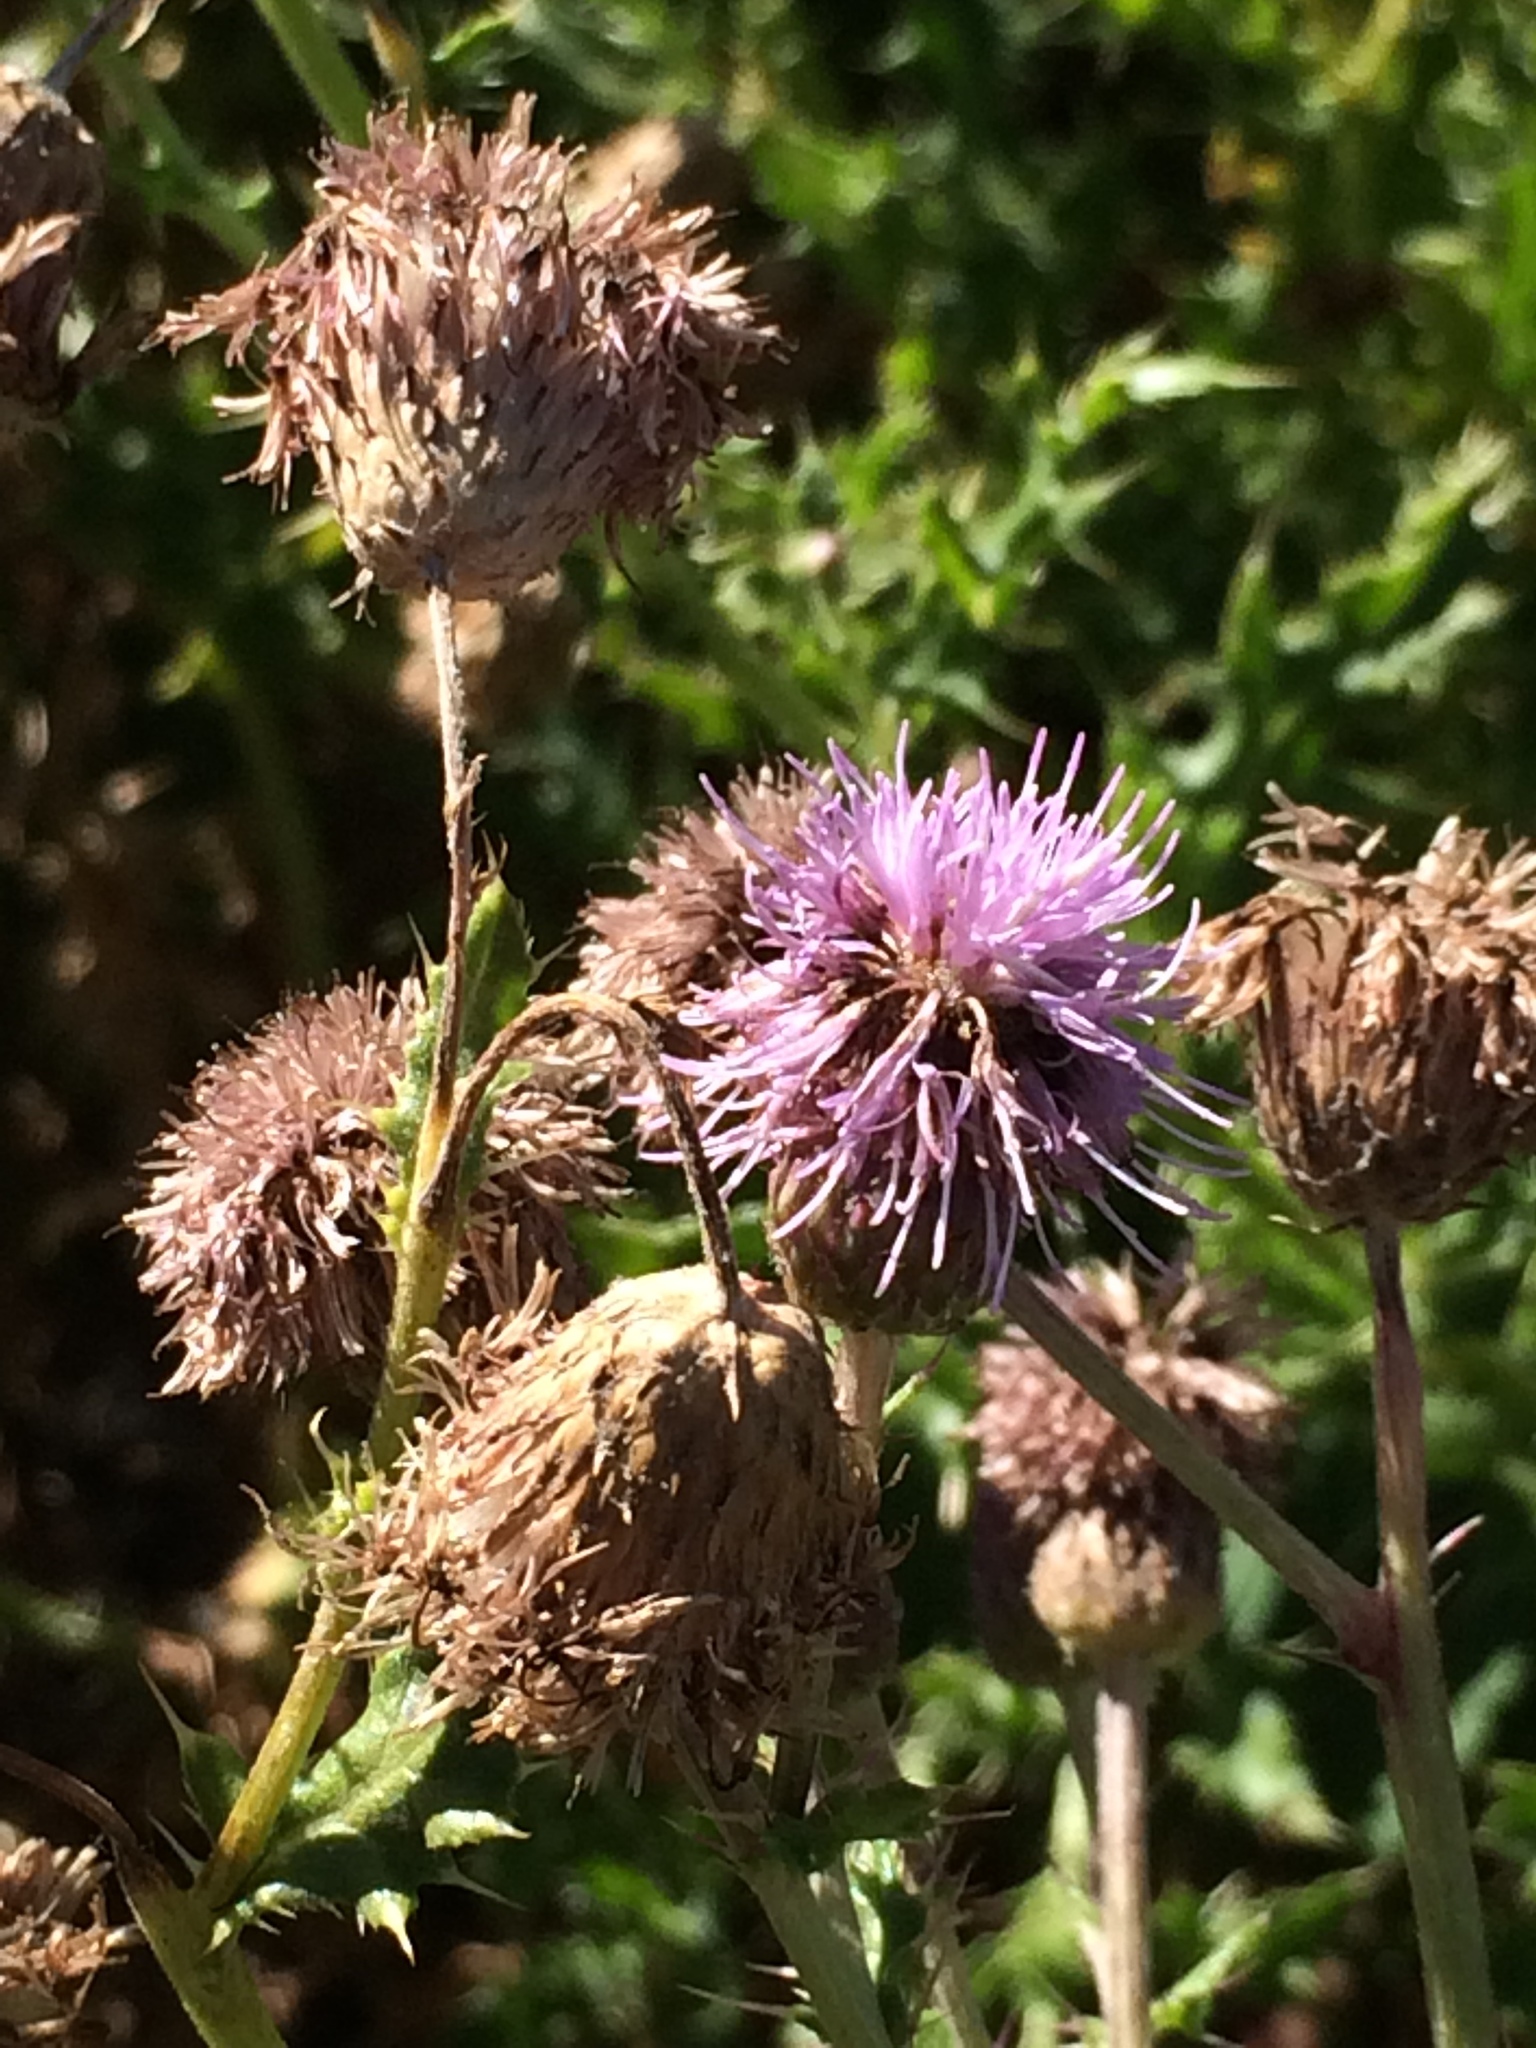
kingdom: Plantae
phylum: Tracheophyta
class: Magnoliopsida
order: Asterales
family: Asteraceae
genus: Cirsium
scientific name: Cirsium arvense
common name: Creeping thistle
